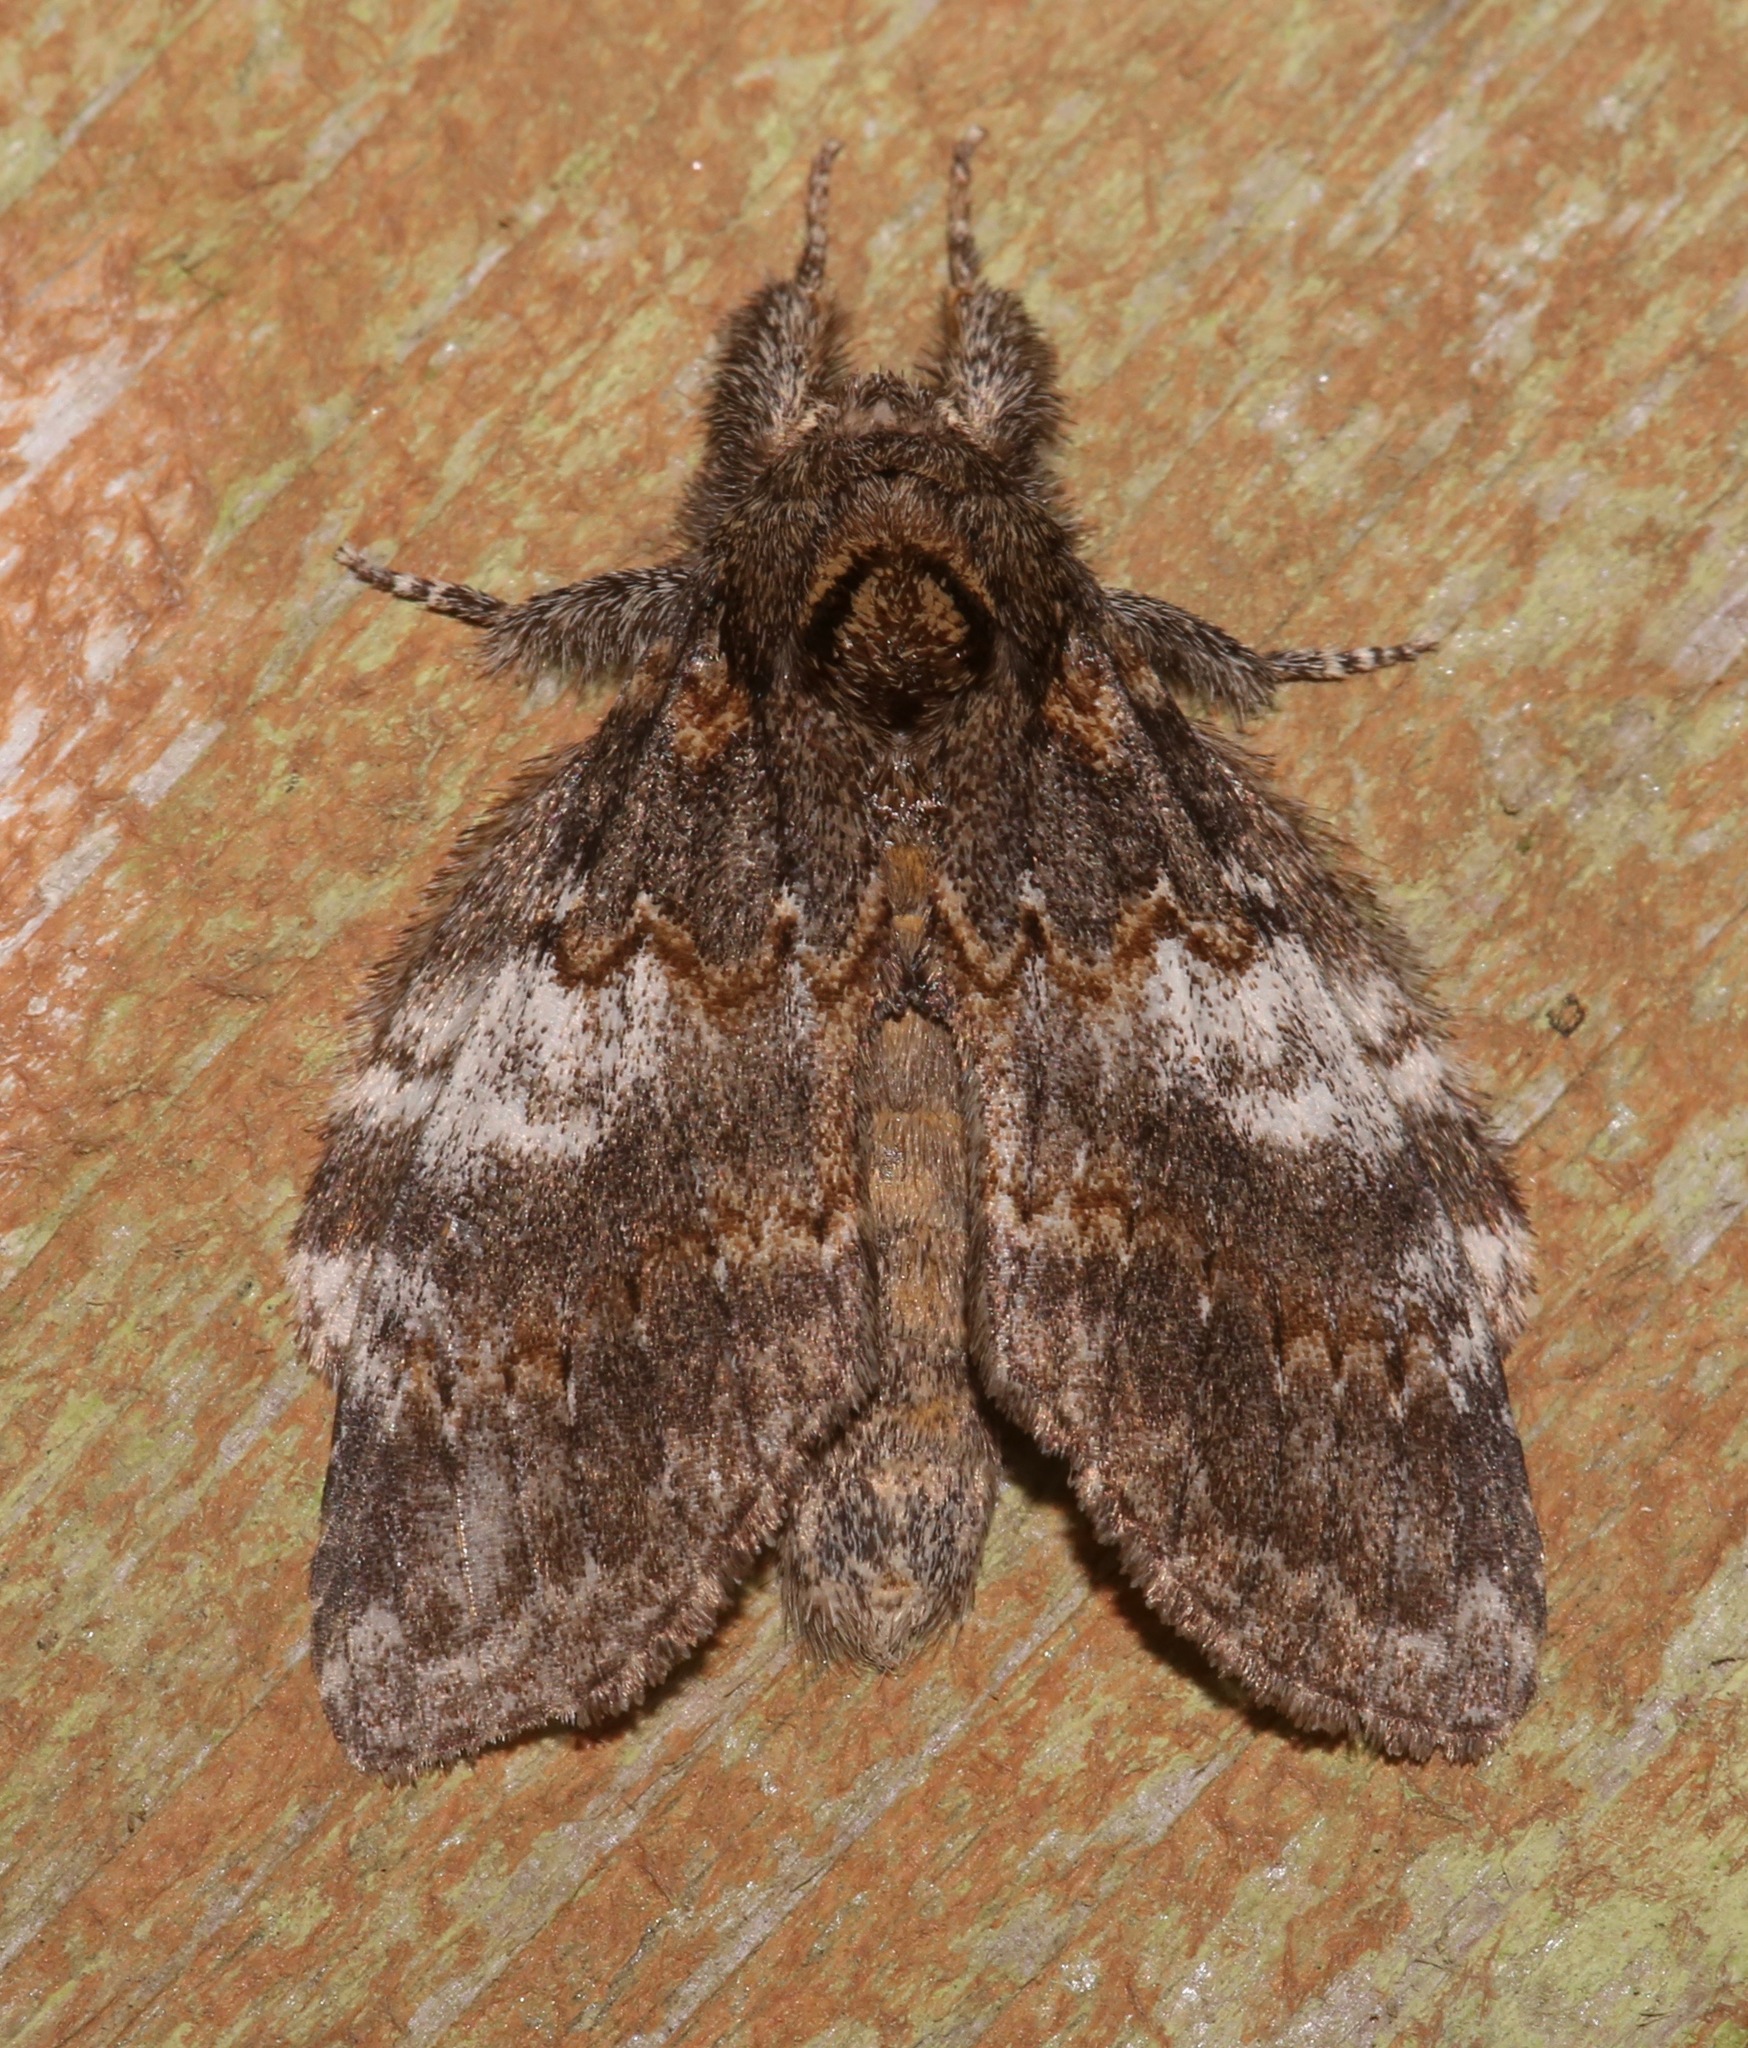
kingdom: Animalia
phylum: Arthropoda
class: Insecta
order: Lepidoptera
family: Notodontidae
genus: Peridea
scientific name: Peridea angulosa
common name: Angulose prominent
